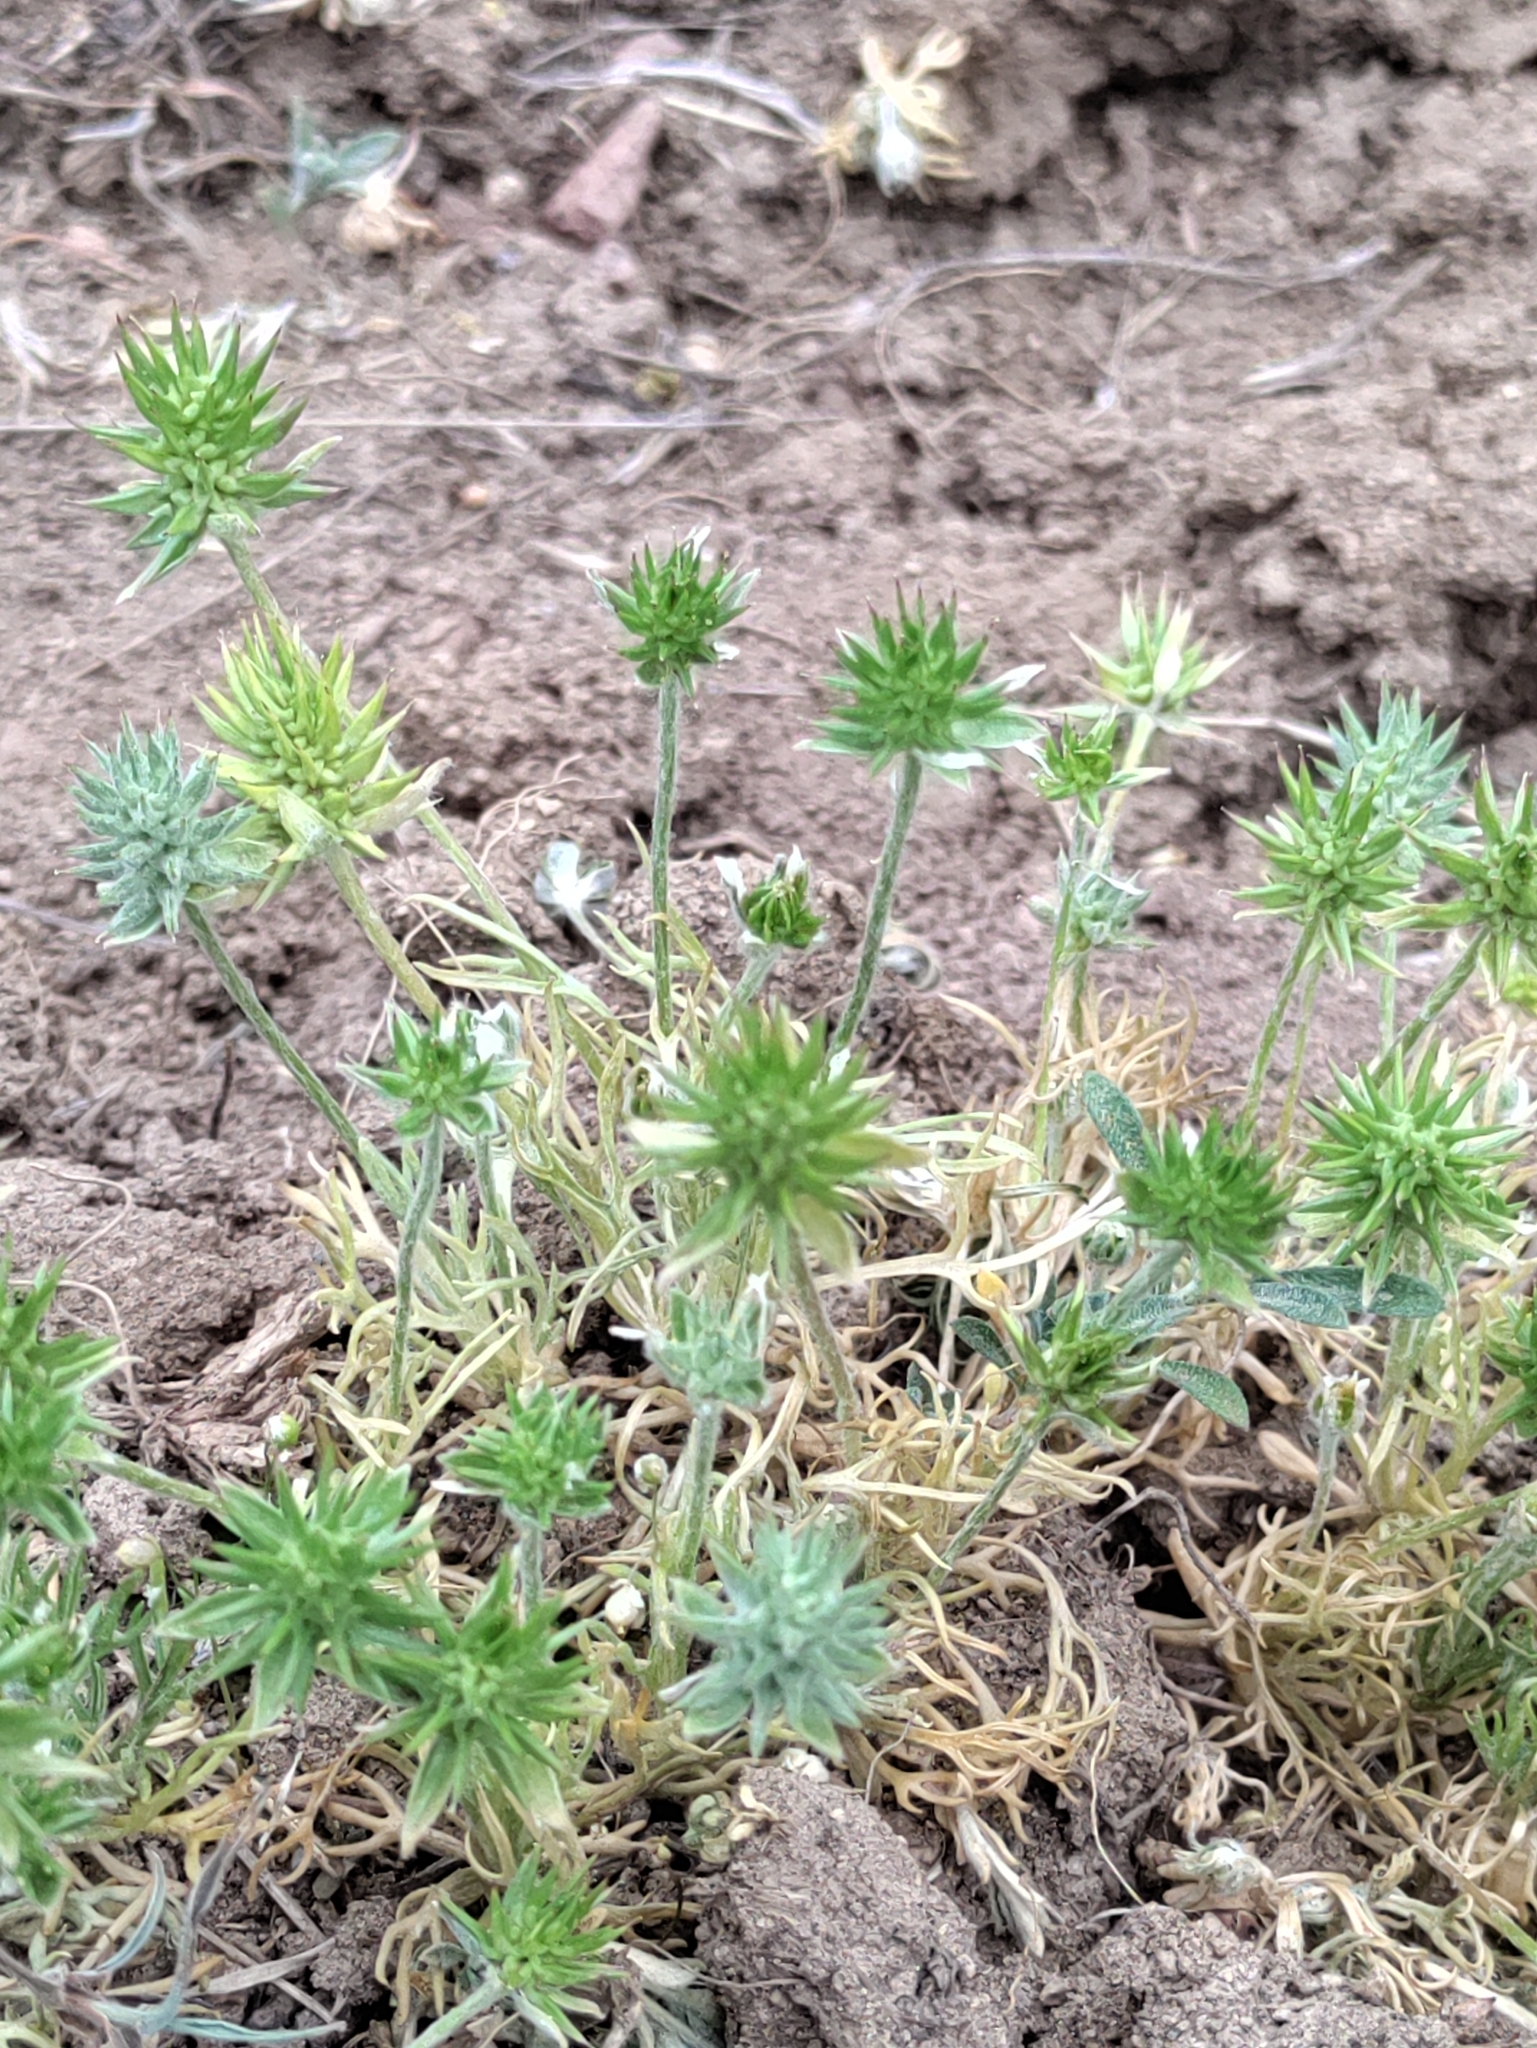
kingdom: Plantae
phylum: Tracheophyta
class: Magnoliopsida
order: Ranunculales
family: Ranunculaceae
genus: Ceratocephala
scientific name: Ceratocephala orthoceras
